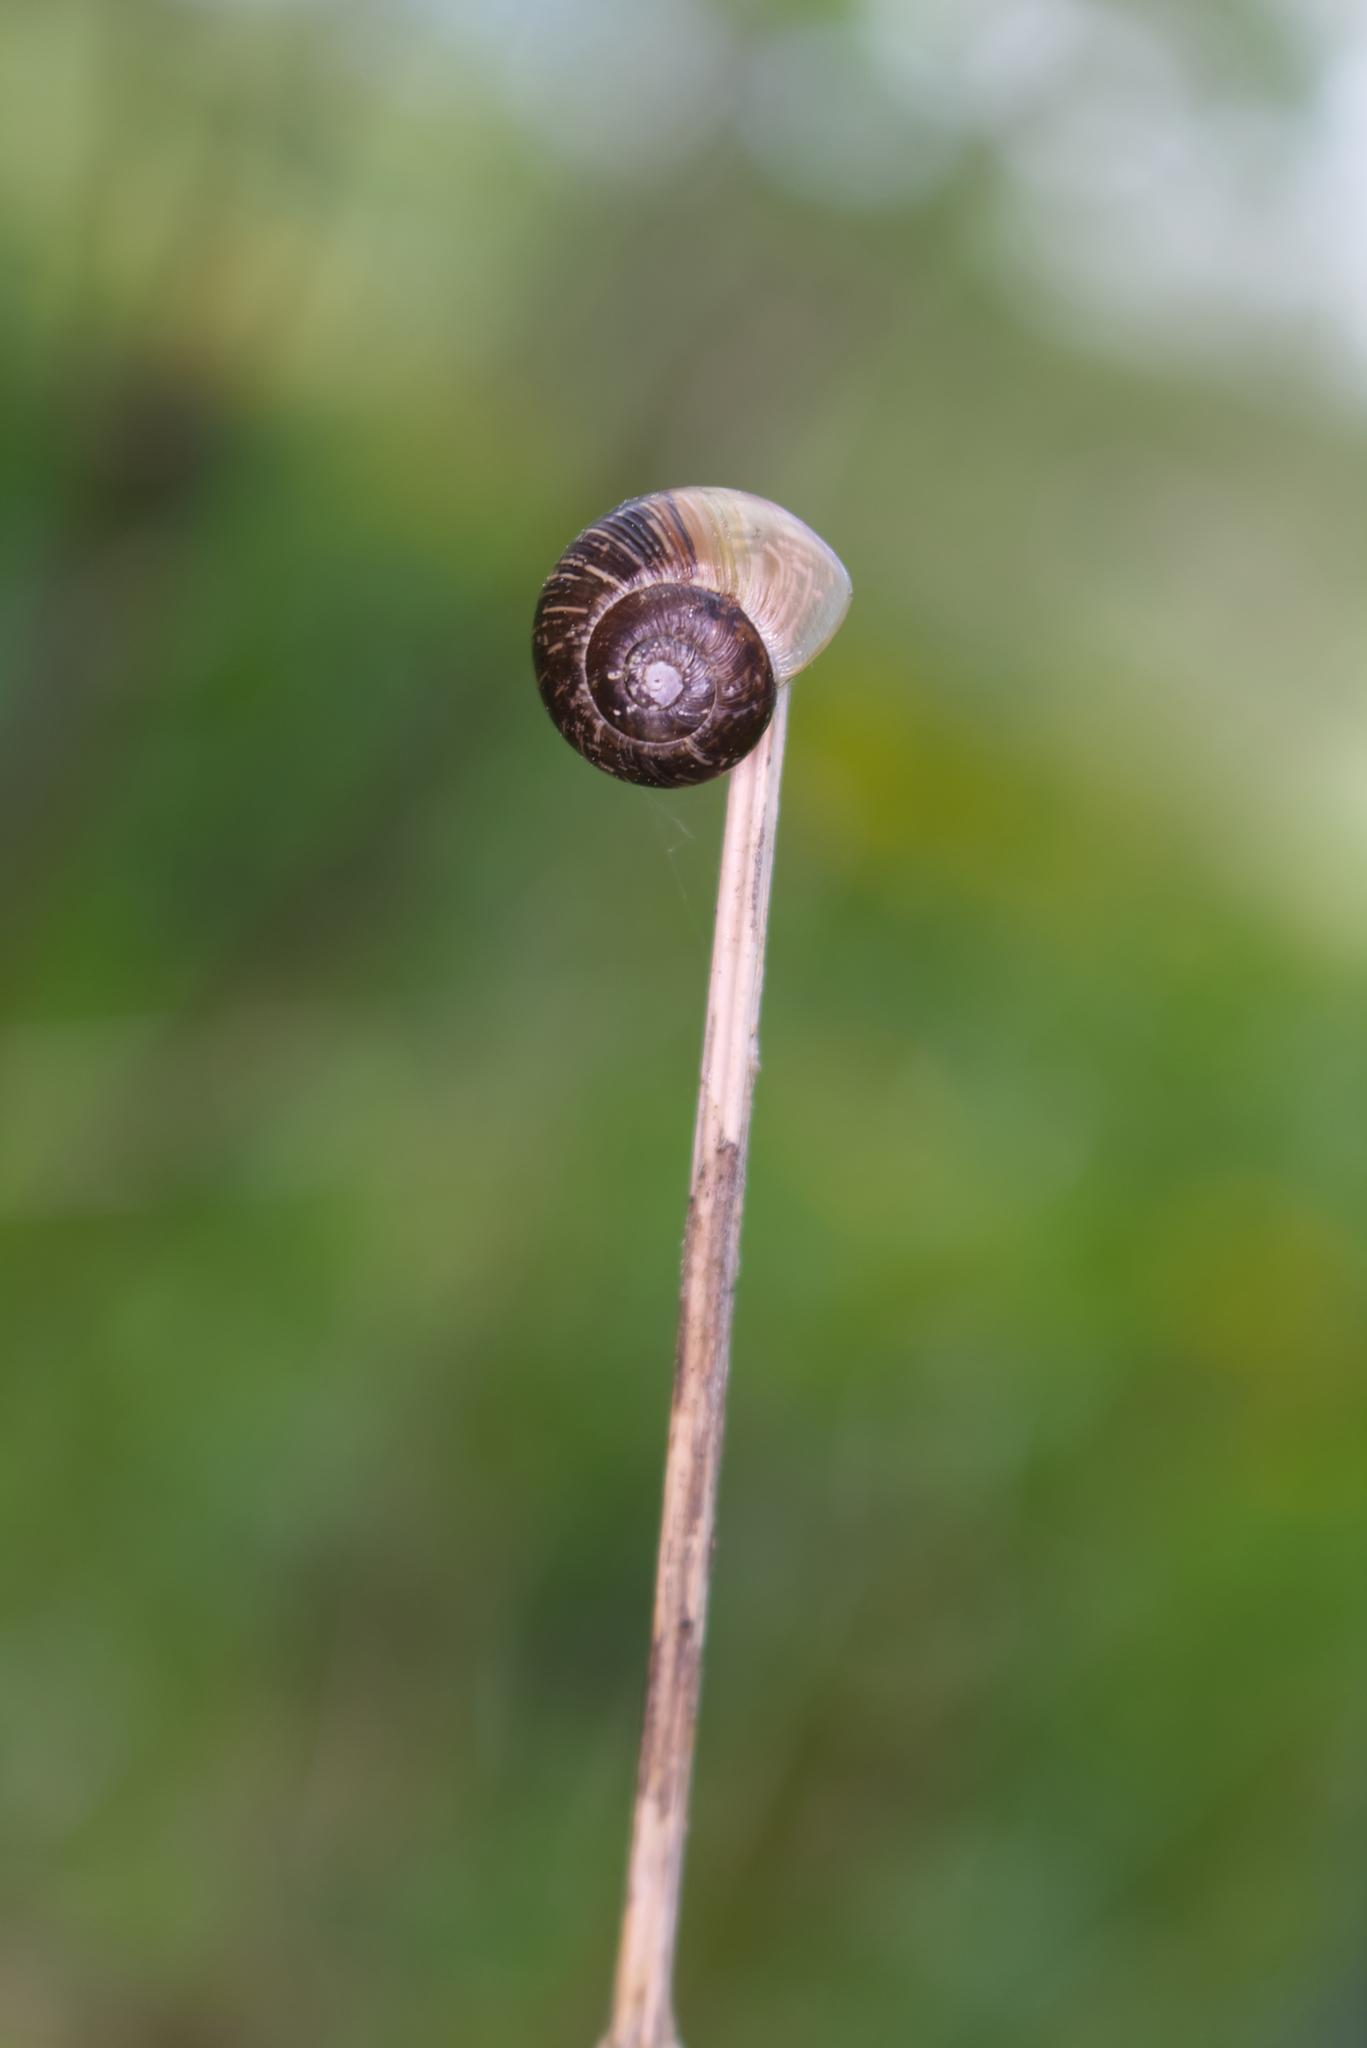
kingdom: Animalia
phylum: Mollusca
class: Gastropoda
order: Stylommatophora
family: Helicidae
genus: Arianta
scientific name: Arianta arbustorum
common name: Copse snail
